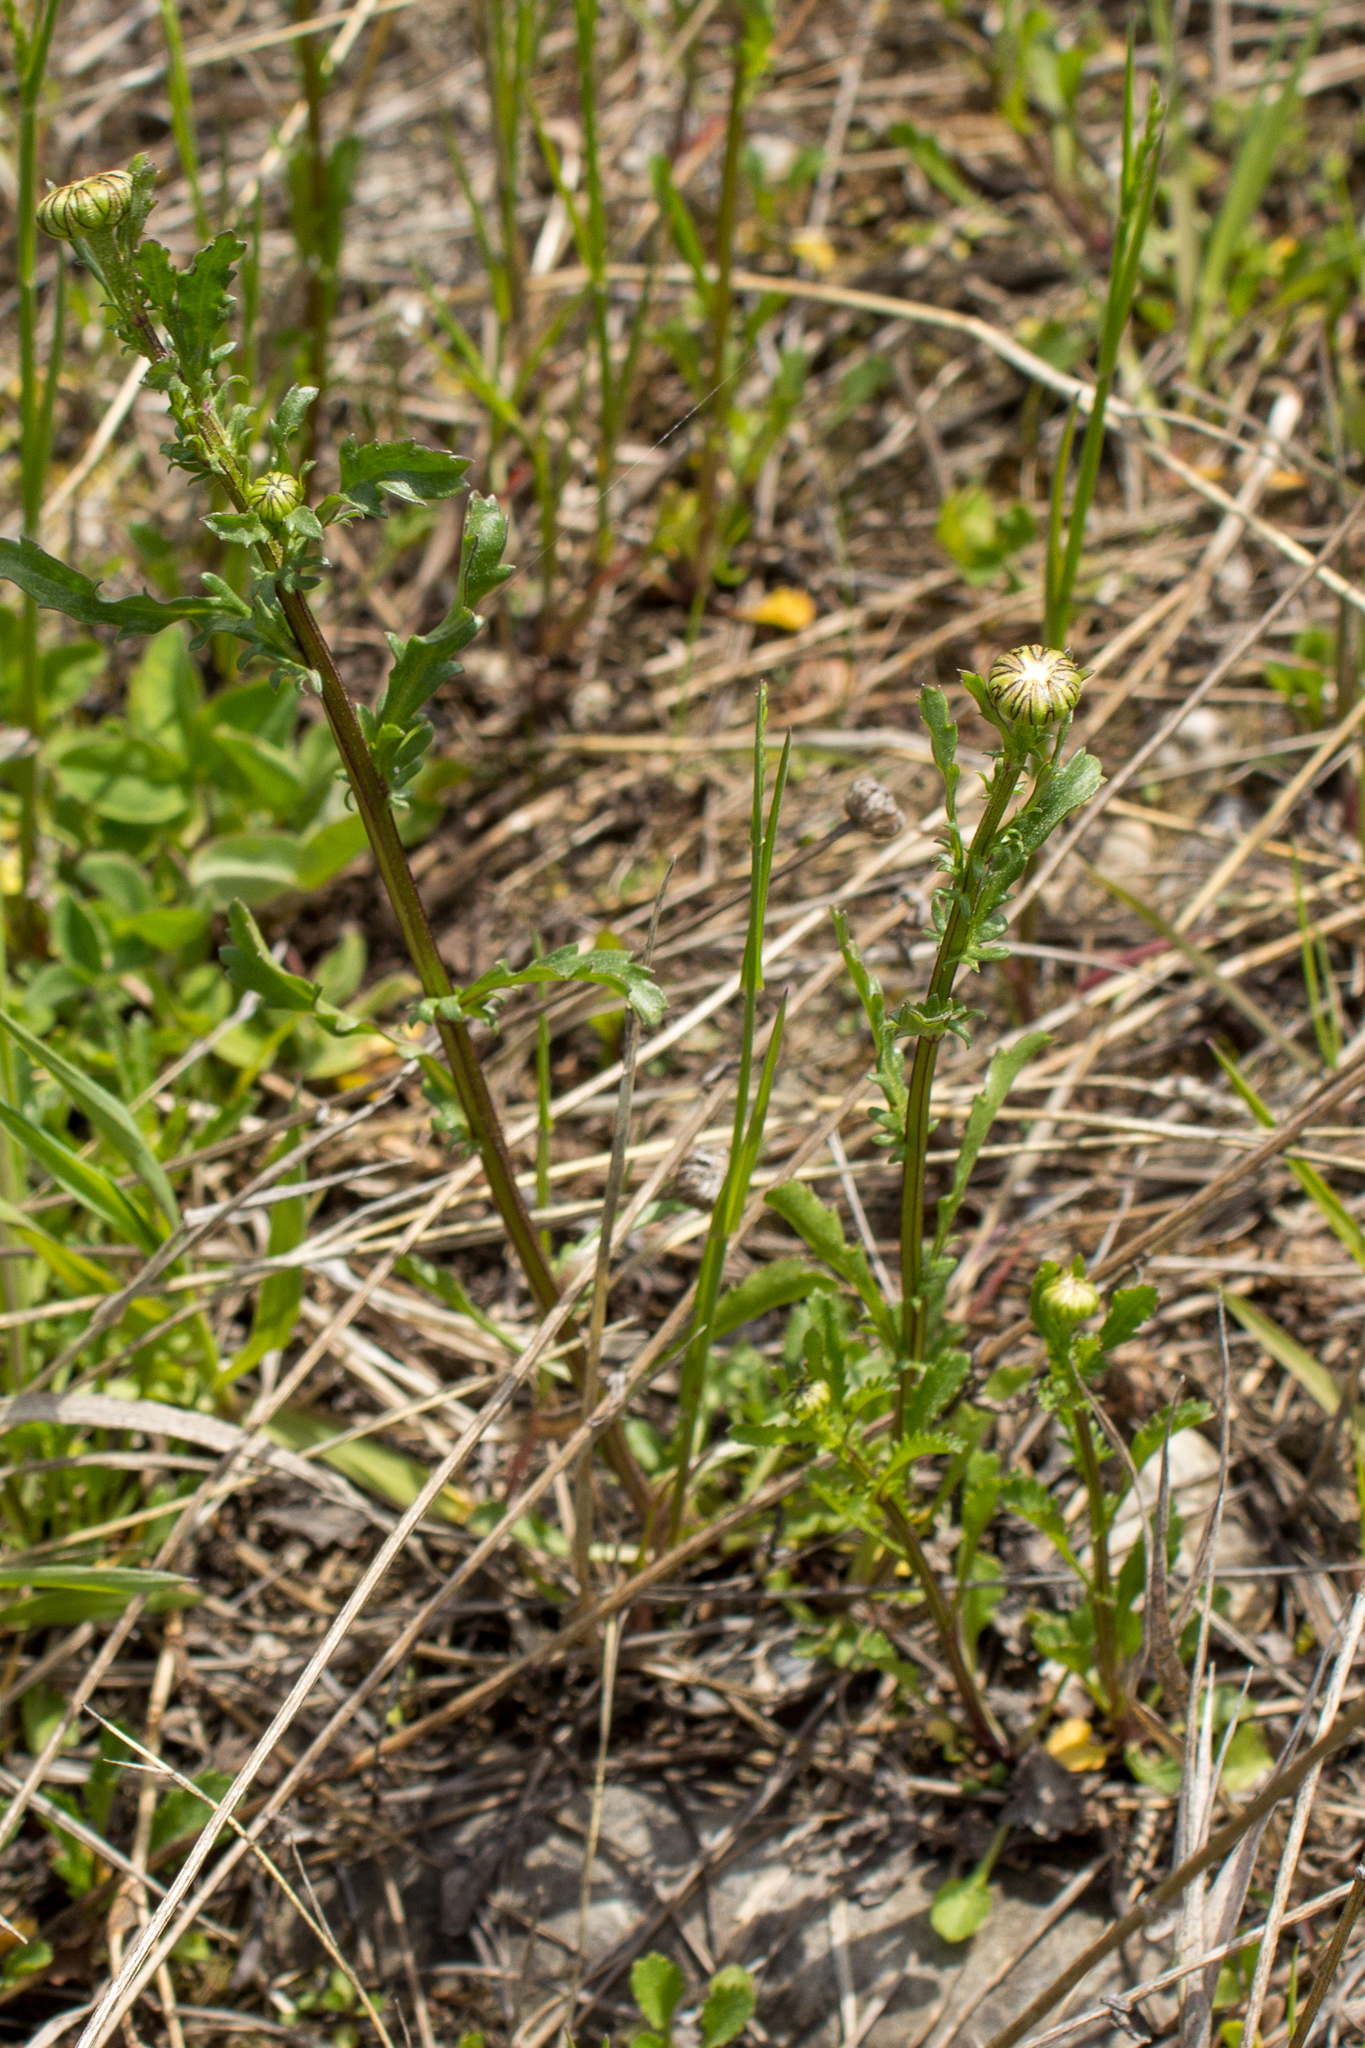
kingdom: Plantae
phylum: Tracheophyta
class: Magnoliopsida
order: Asterales
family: Asteraceae
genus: Leucanthemum
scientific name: Leucanthemum vulgare
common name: Oxeye daisy
